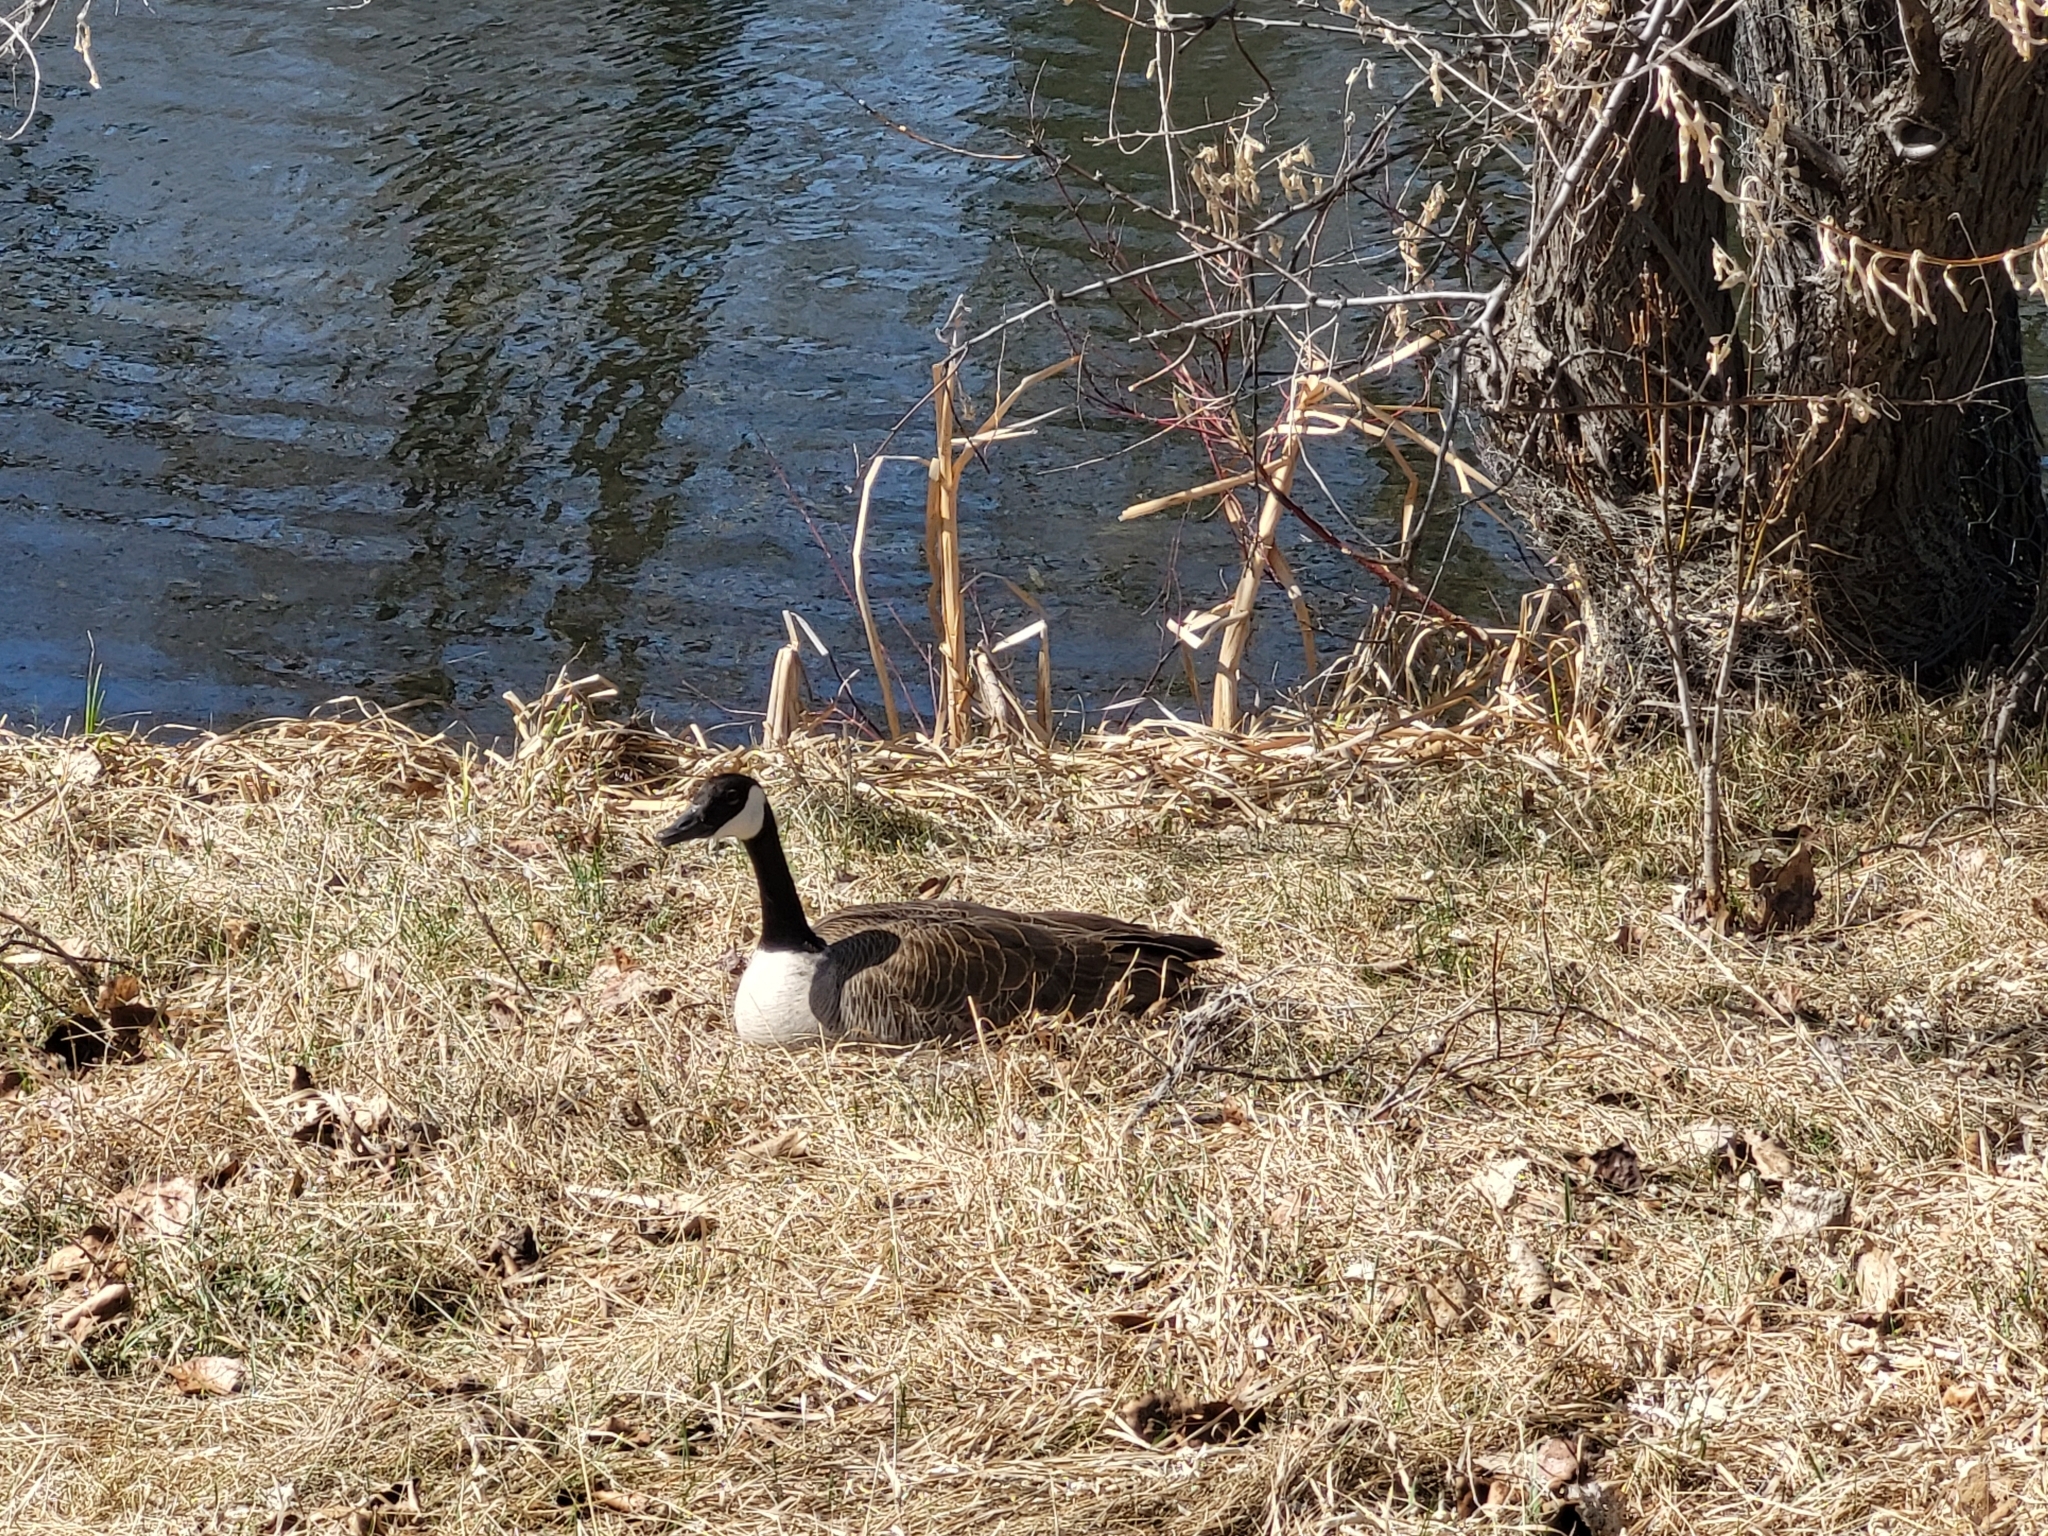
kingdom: Animalia
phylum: Chordata
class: Aves
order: Anseriformes
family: Anatidae
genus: Branta
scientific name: Branta canadensis
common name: Canada goose
